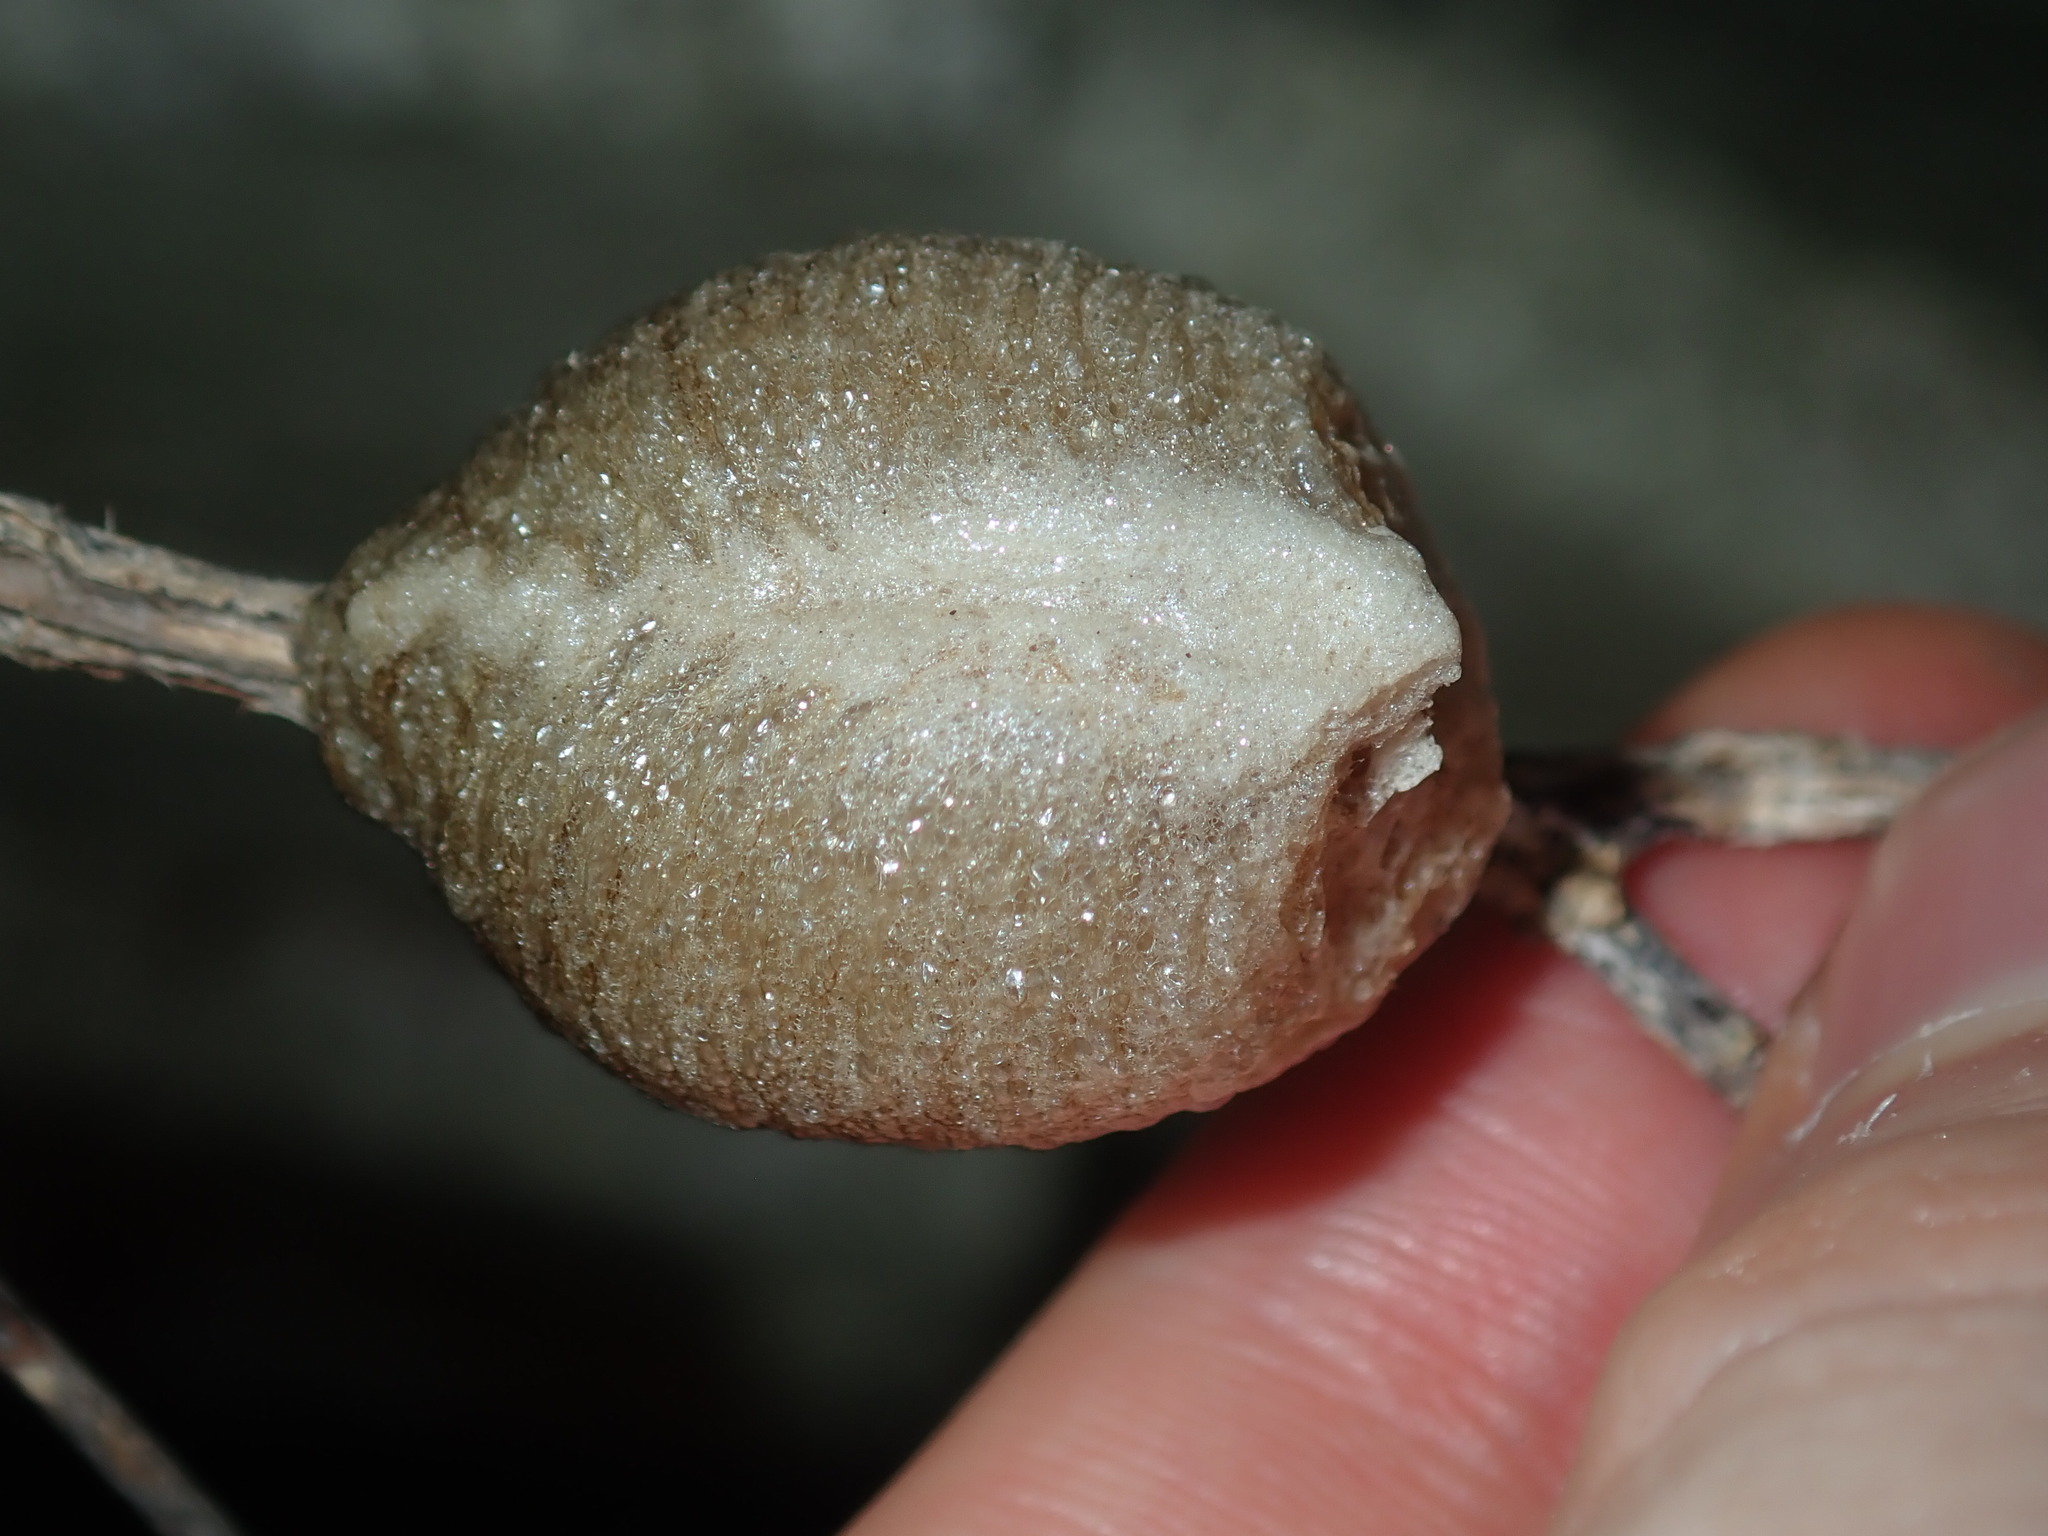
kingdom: Animalia
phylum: Arthropoda
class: Insecta
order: Mantodea
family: Mantidae
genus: Archimantis
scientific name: Archimantis latistyla
